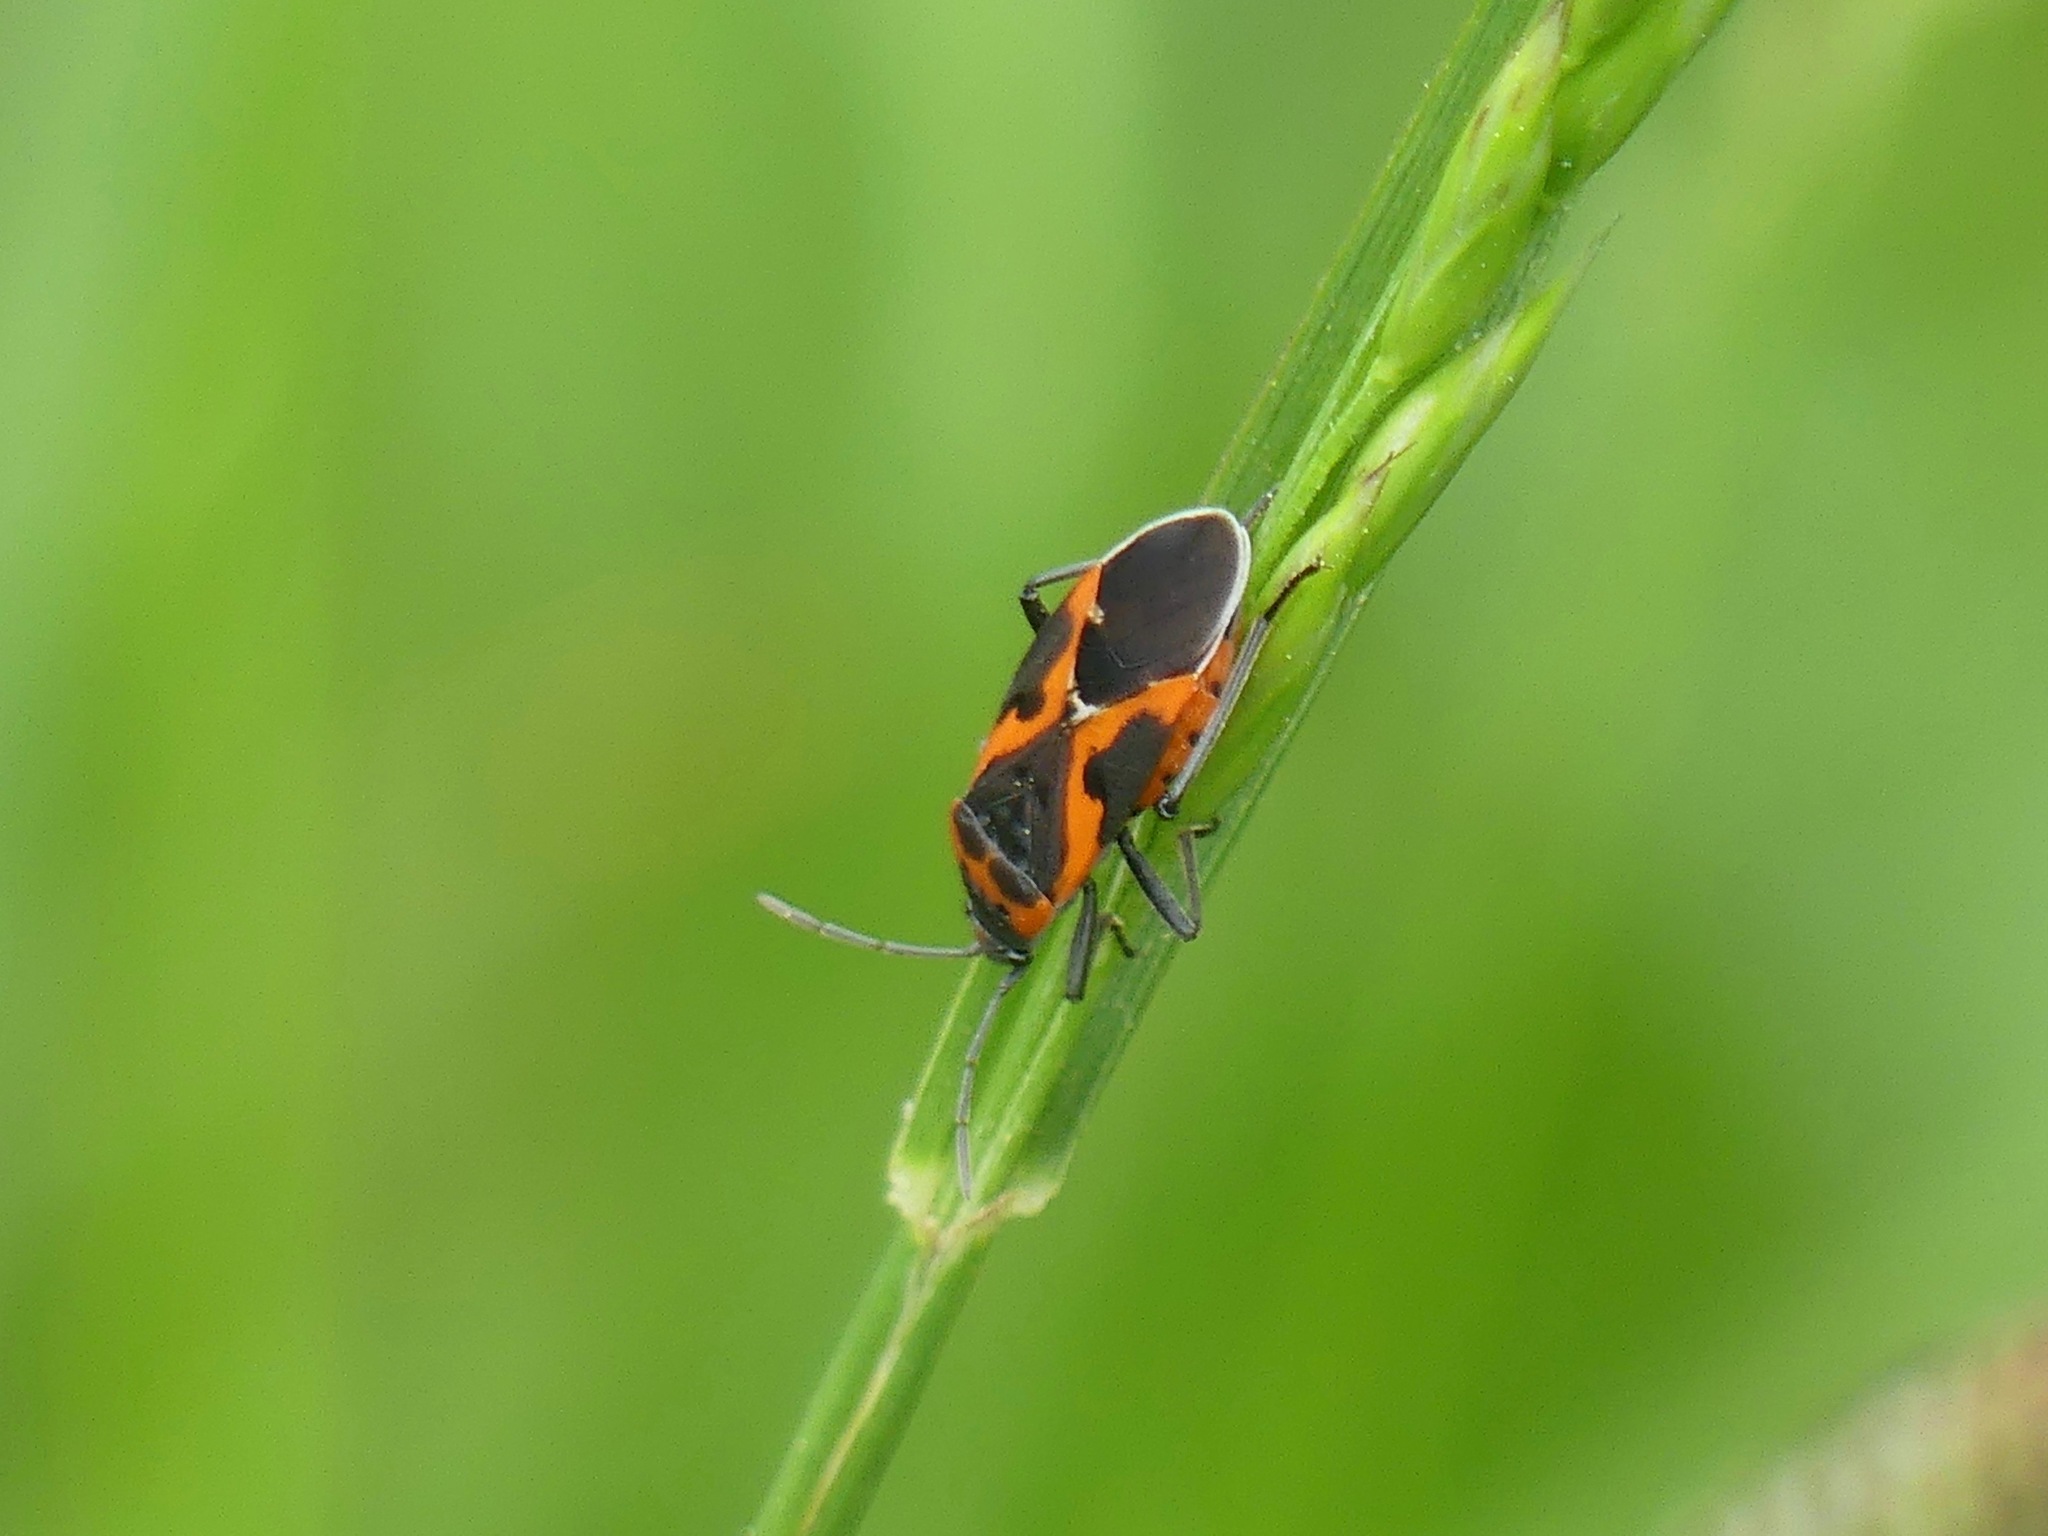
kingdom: Animalia
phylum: Arthropoda
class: Insecta
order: Hemiptera
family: Lygaeidae
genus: Lygaeus
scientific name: Lygaeus kalmii
